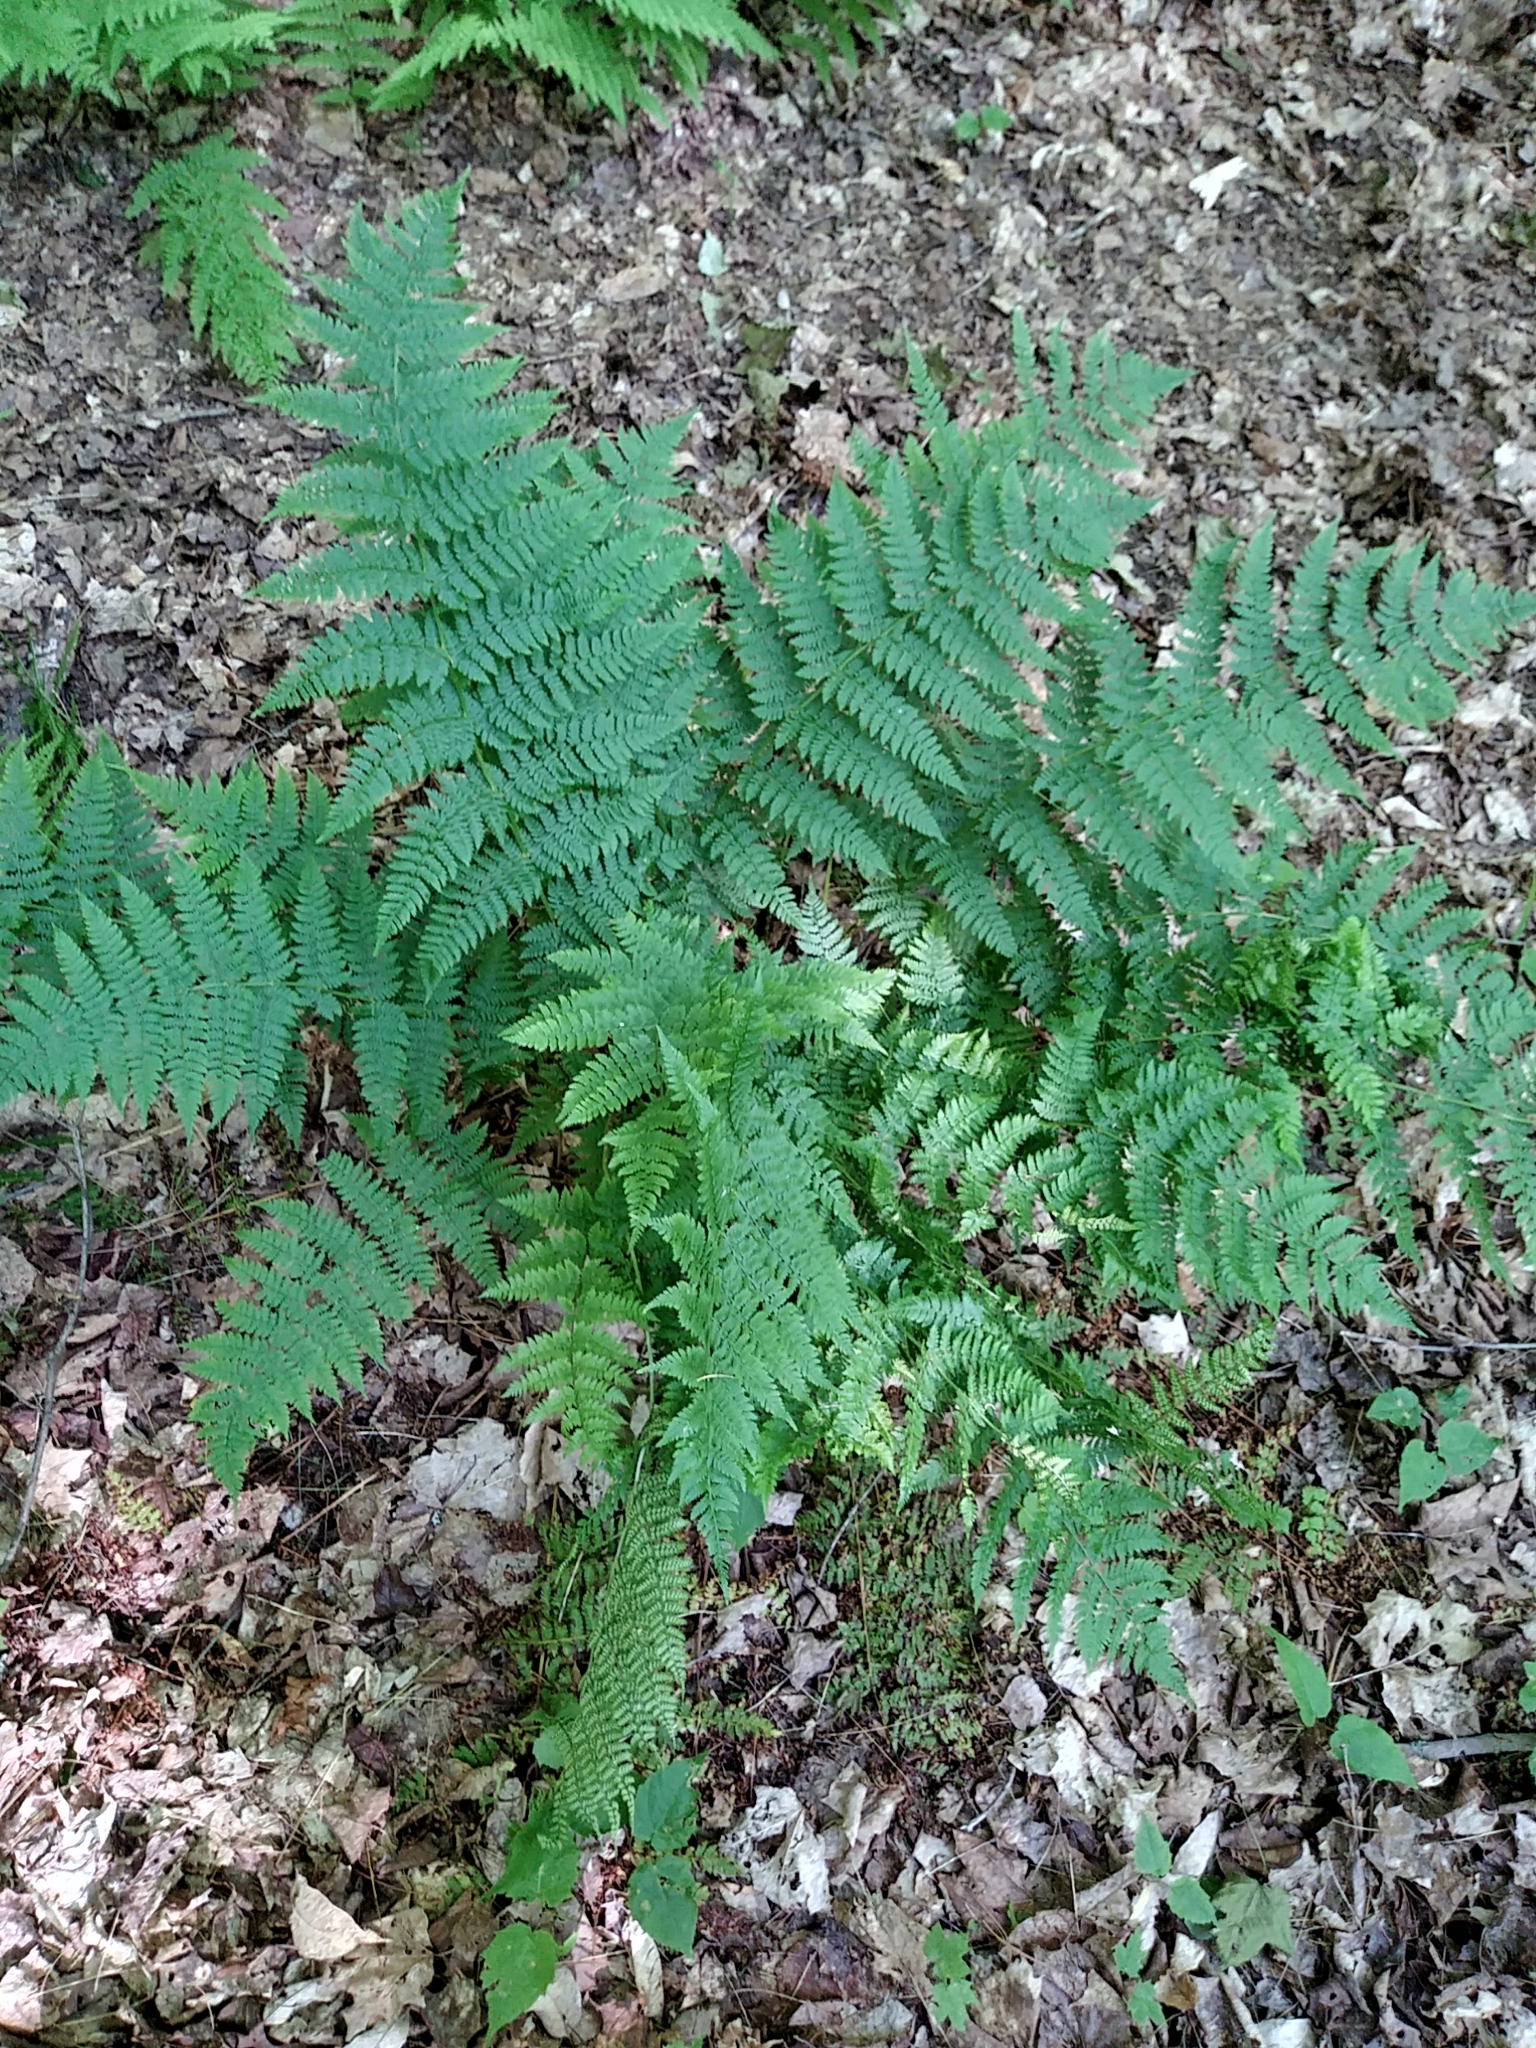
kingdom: Plantae
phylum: Tracheophyta
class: Polypodiopsida
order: Polypodiales
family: Dryopteridaceae
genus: Dryopteris
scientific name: Dryopteris intermedia
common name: Evergreen wood fern
